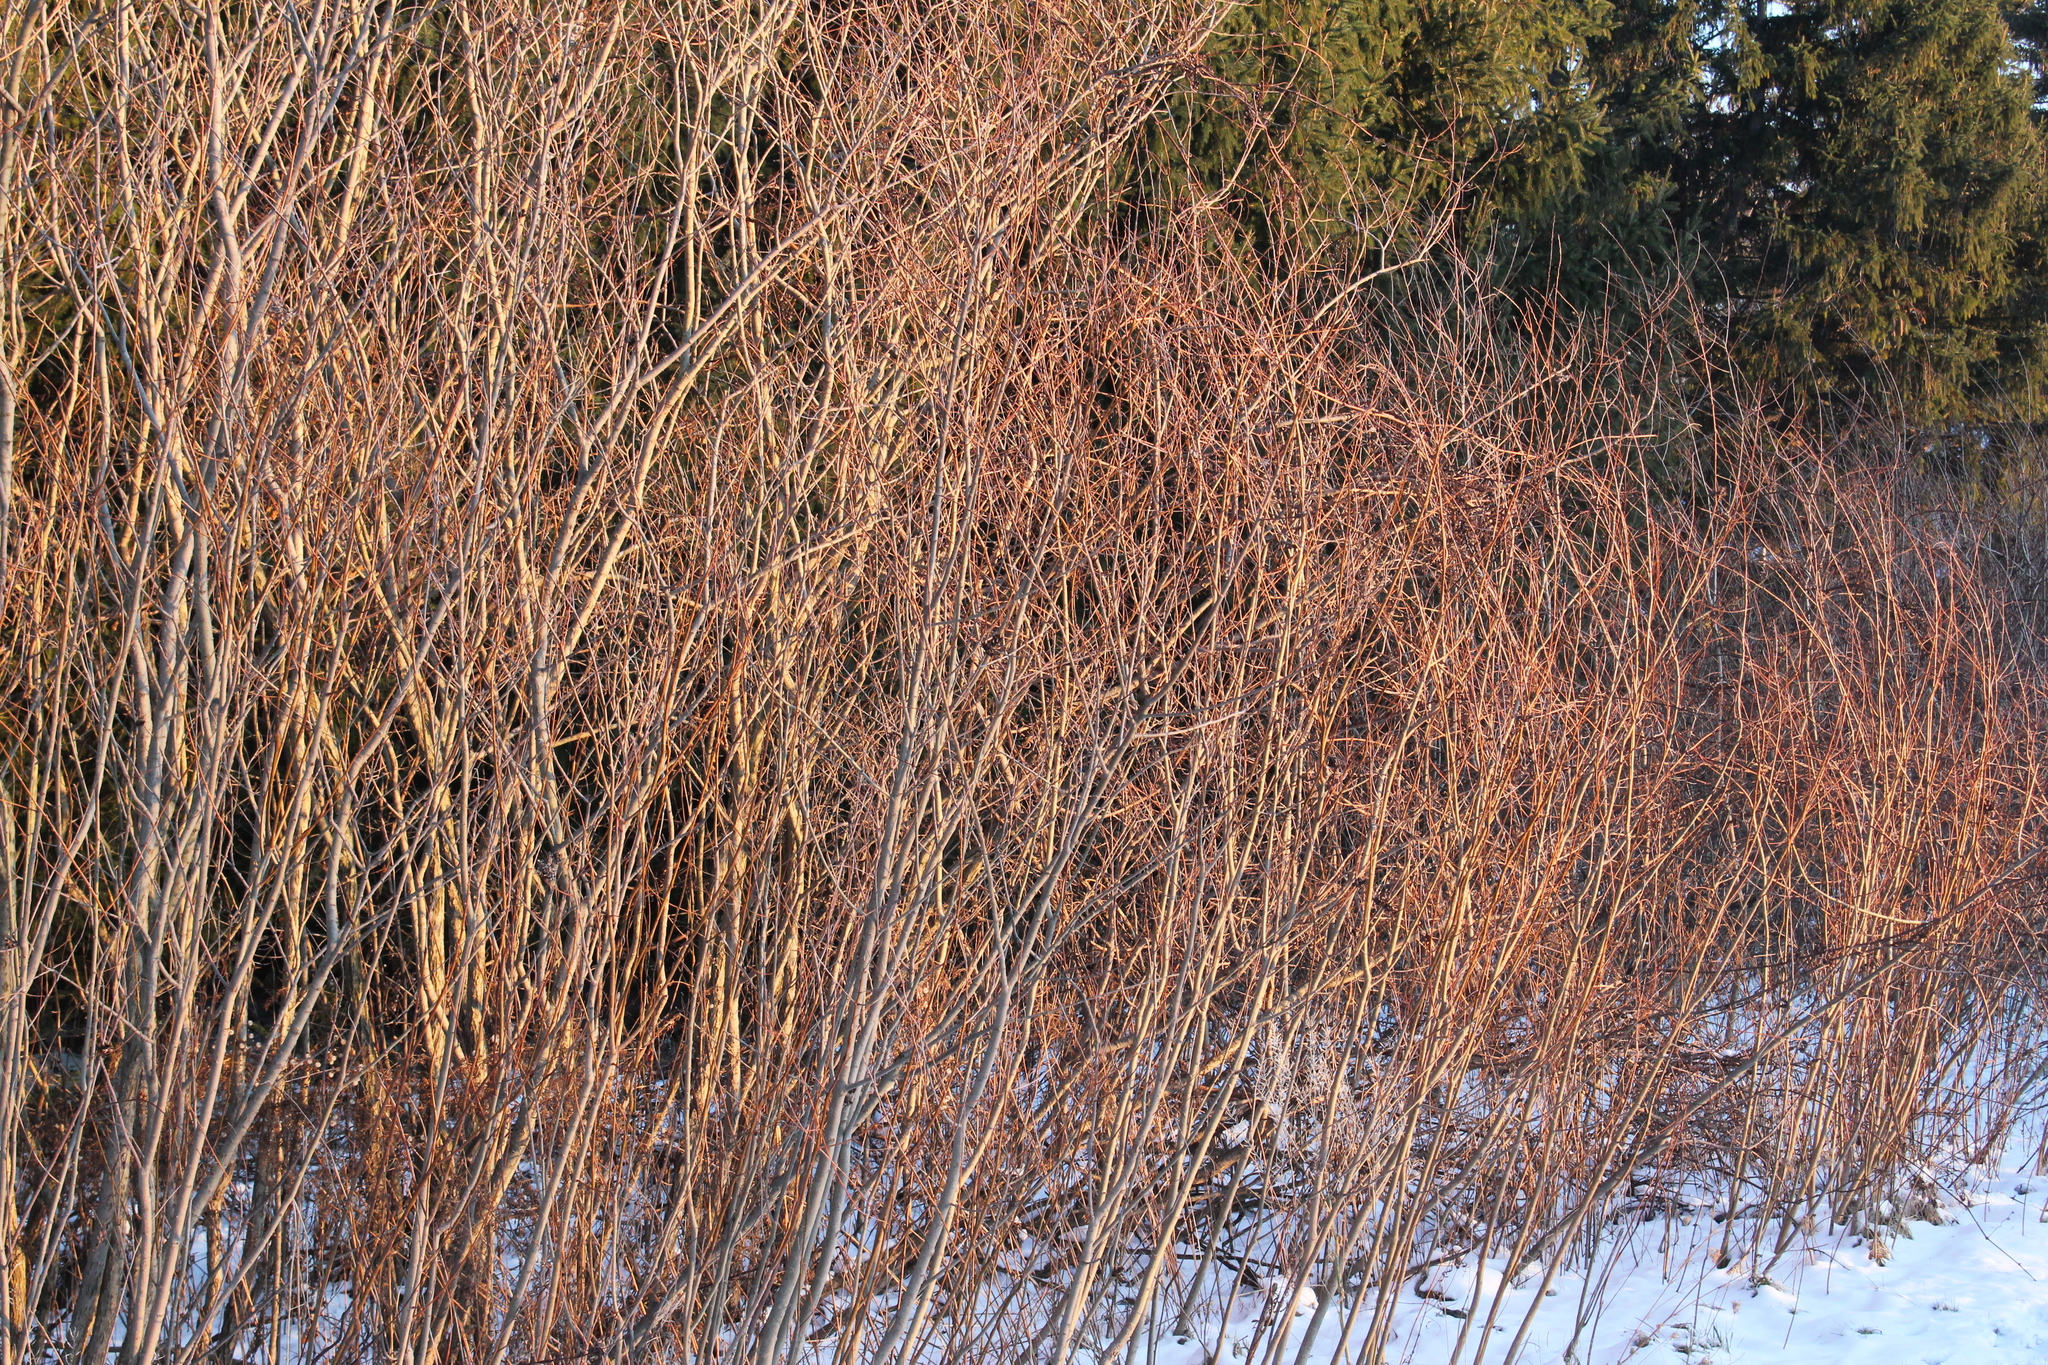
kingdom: Plantae
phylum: Tracheophyta
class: Magnoliopsida
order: Malpighiales
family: Salicaceae
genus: Salix
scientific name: Salix interior
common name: Sandbar willow
